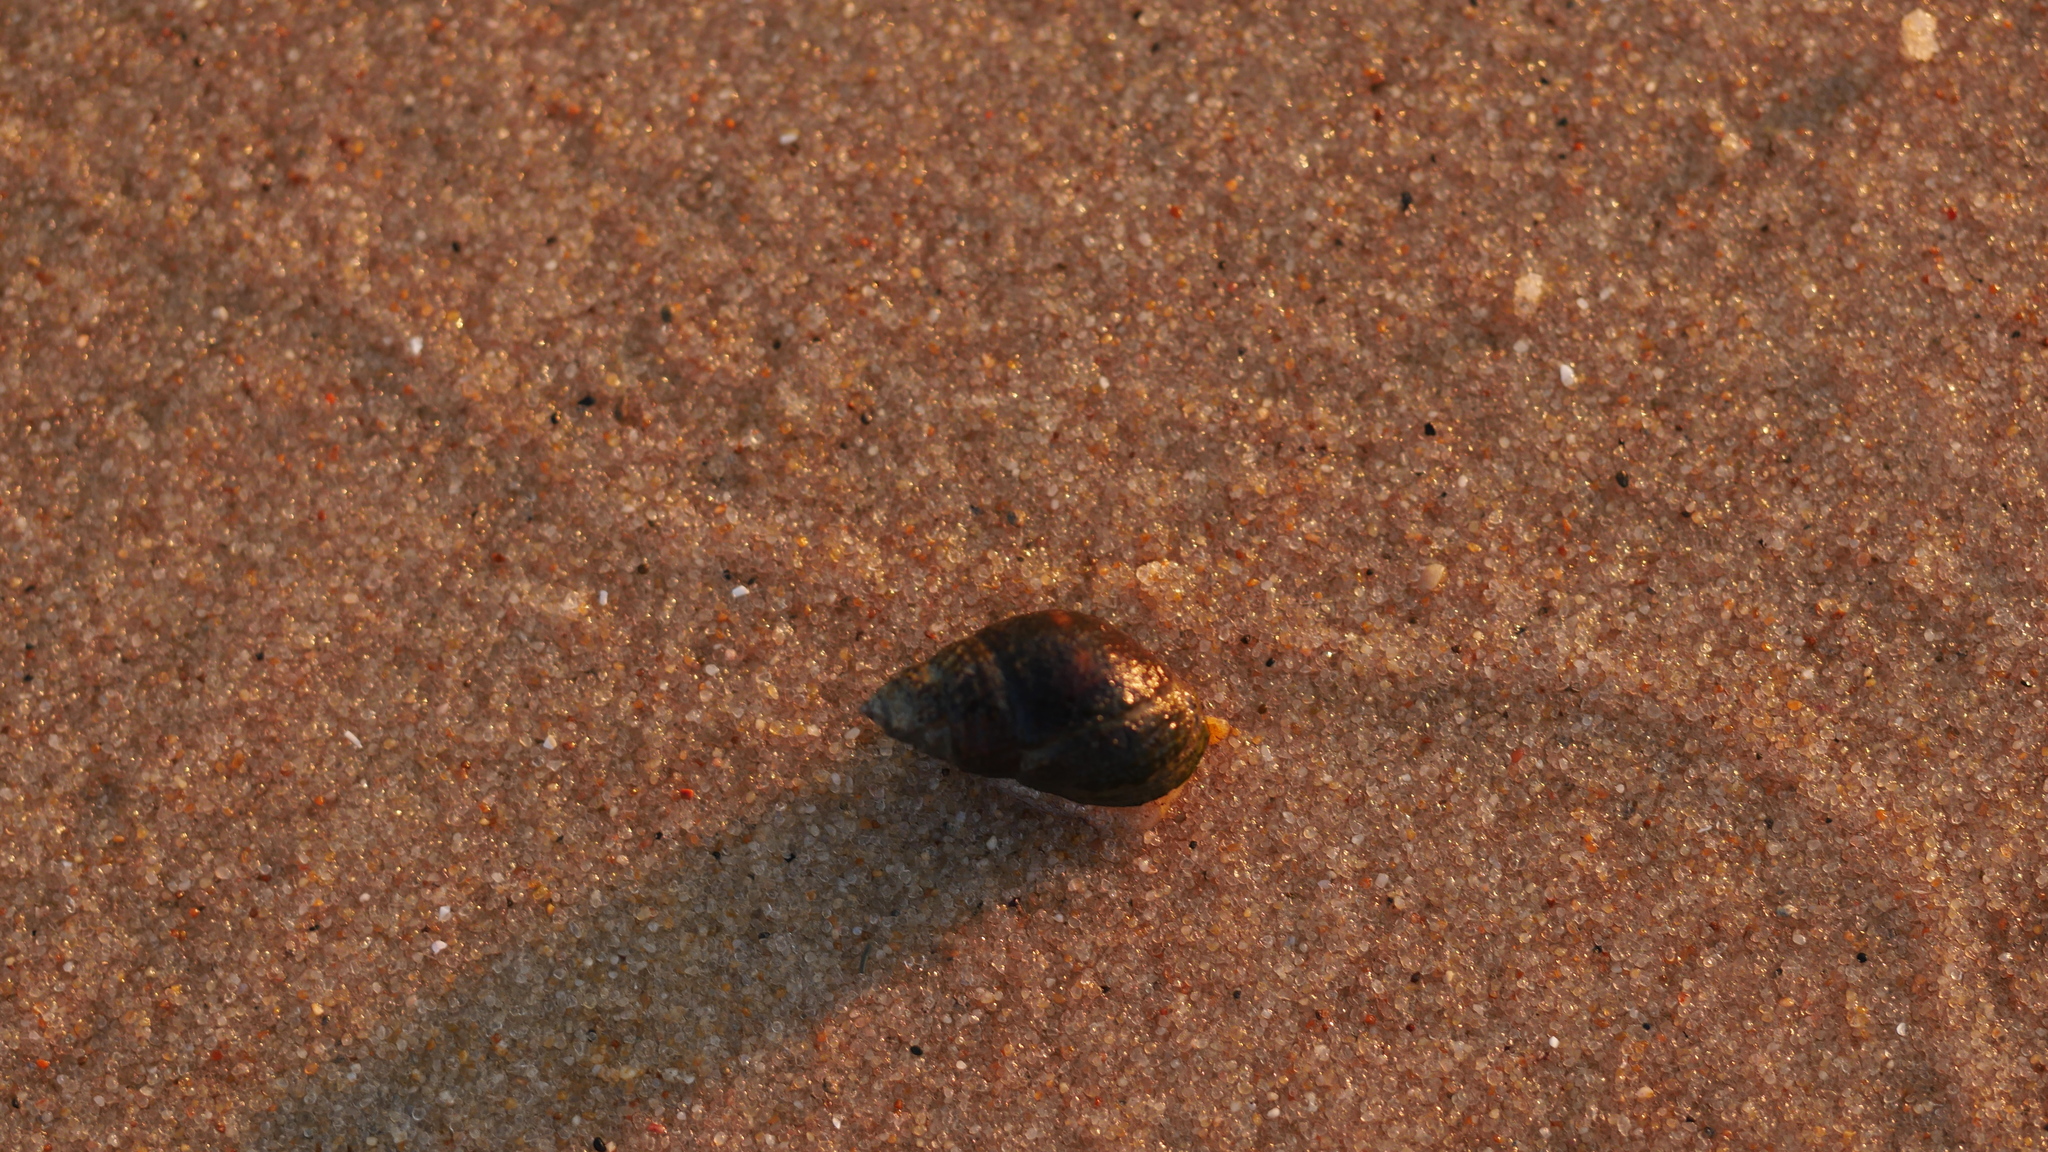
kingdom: Animalia
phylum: Mollusca
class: Gastropoda
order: Neogastropoda
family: Nassariidae
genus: Ilyanassa
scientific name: Ilyanassa obsoleta
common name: Eastern mudsnail
